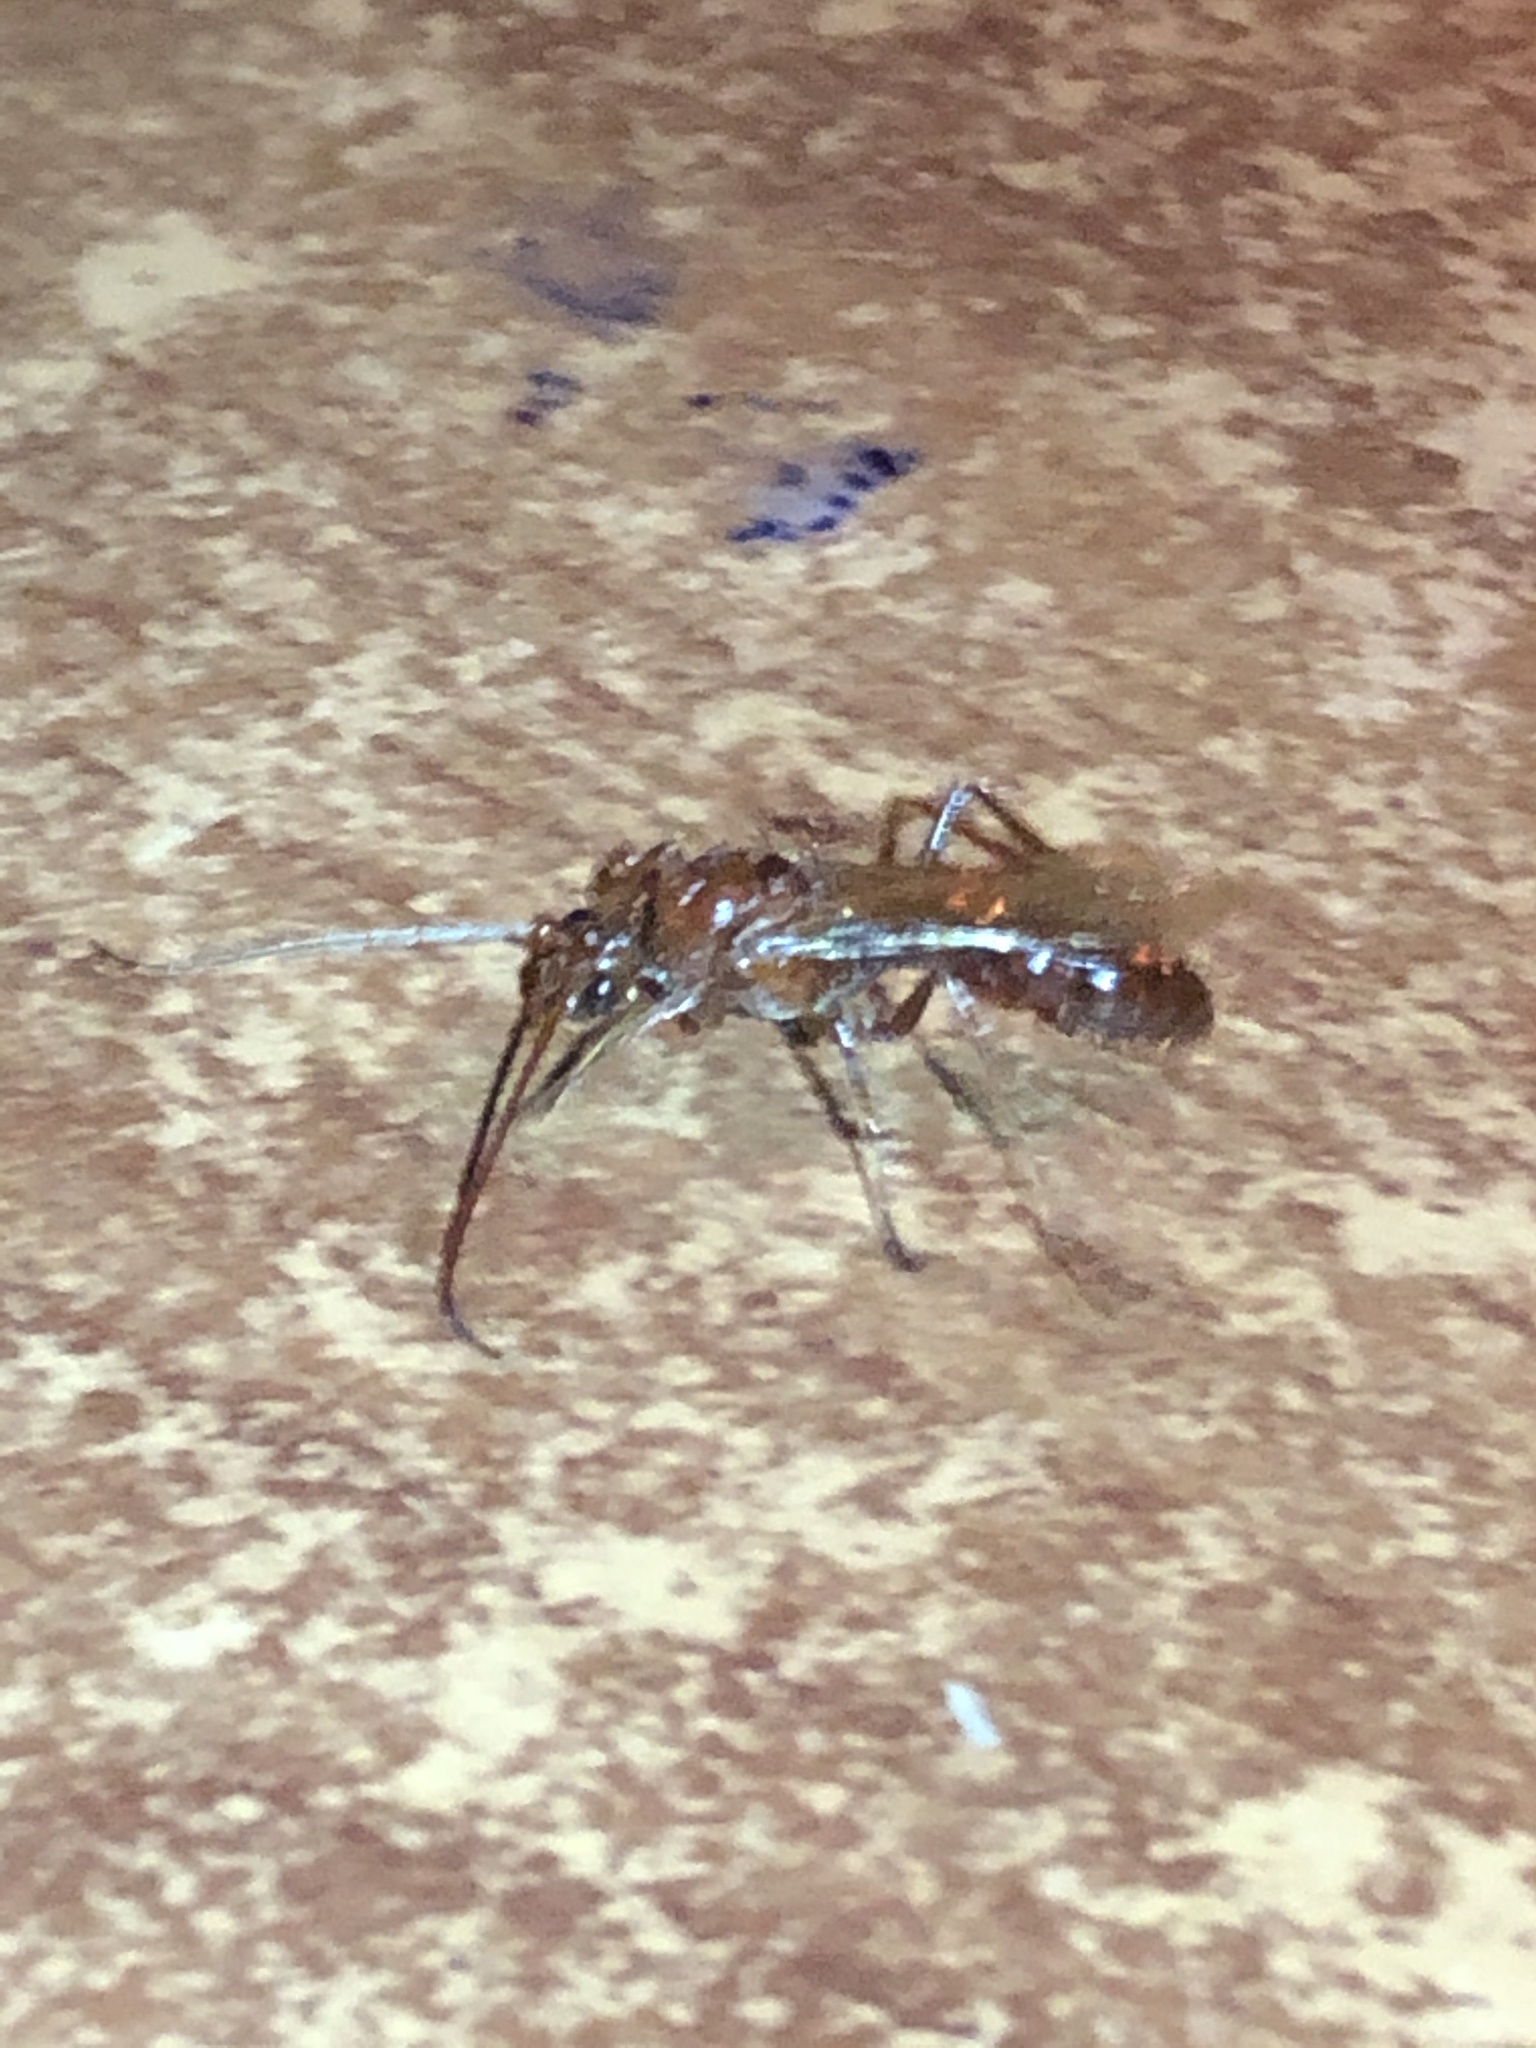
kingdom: Animalia
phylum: Arthropoda
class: Insecta
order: Hymenoptera
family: Formicidae
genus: Paraponera
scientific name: Paraponera clavata
